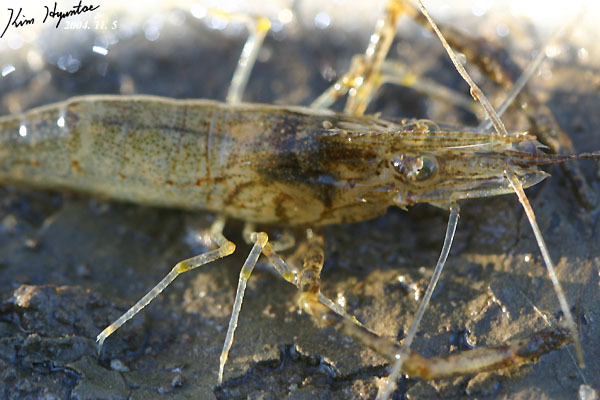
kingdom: Animalia
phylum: Arthropoda
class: Malacostraca
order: Decapoda
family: Palaemonidae
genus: Macrobrachium
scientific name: Macrobrachium nipponense
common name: East asian river prawn
